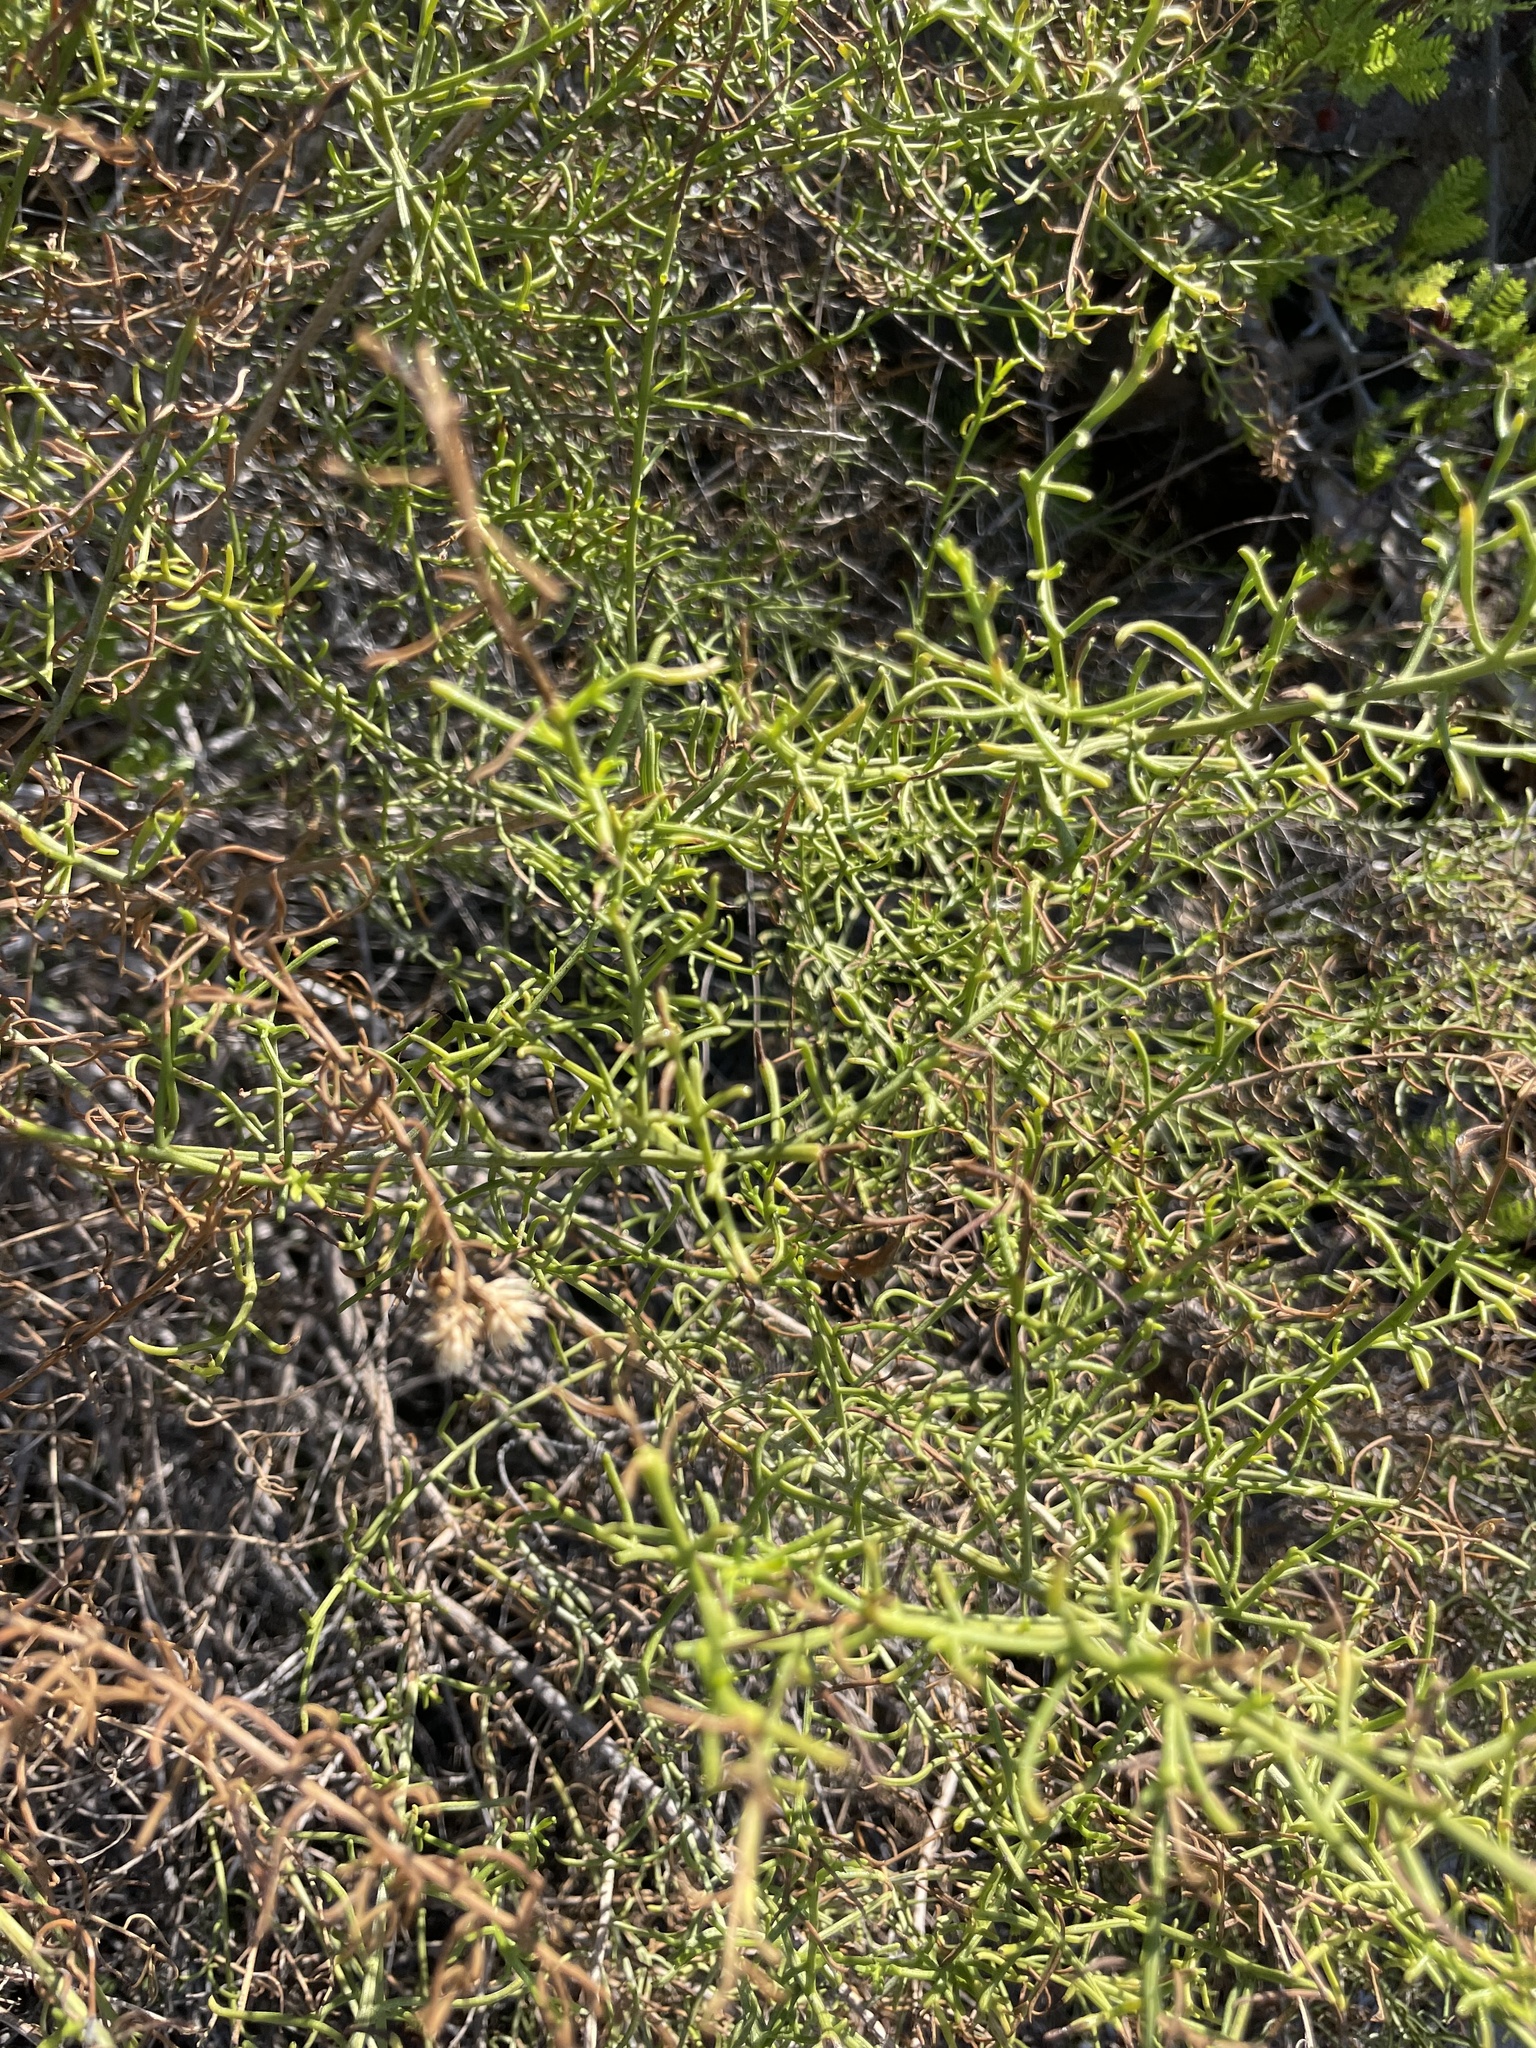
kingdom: Plantae
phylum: Tracheophyta
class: Magnoliopsida
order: Asterales
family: Asteraceae
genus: Gundlachia
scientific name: Gundlachia diffusa
